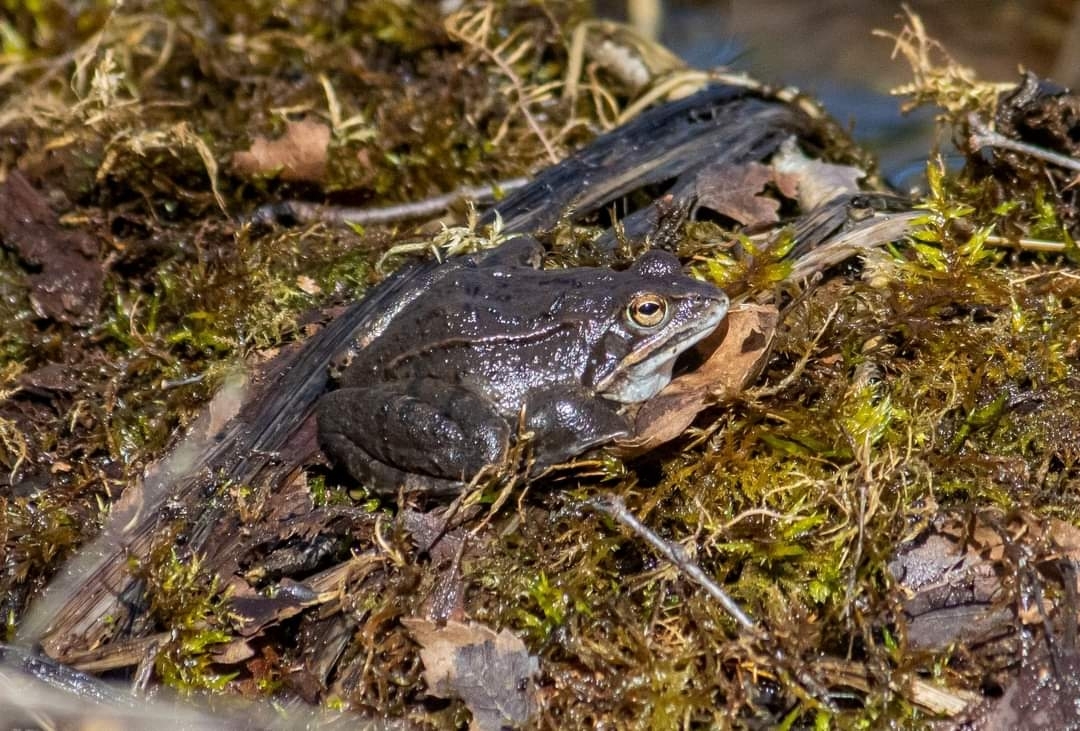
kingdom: Animalia
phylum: Chordata
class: Amphibia
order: Anura
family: Ranidae
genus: Rana
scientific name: Rana arvalis
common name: Moor frog
